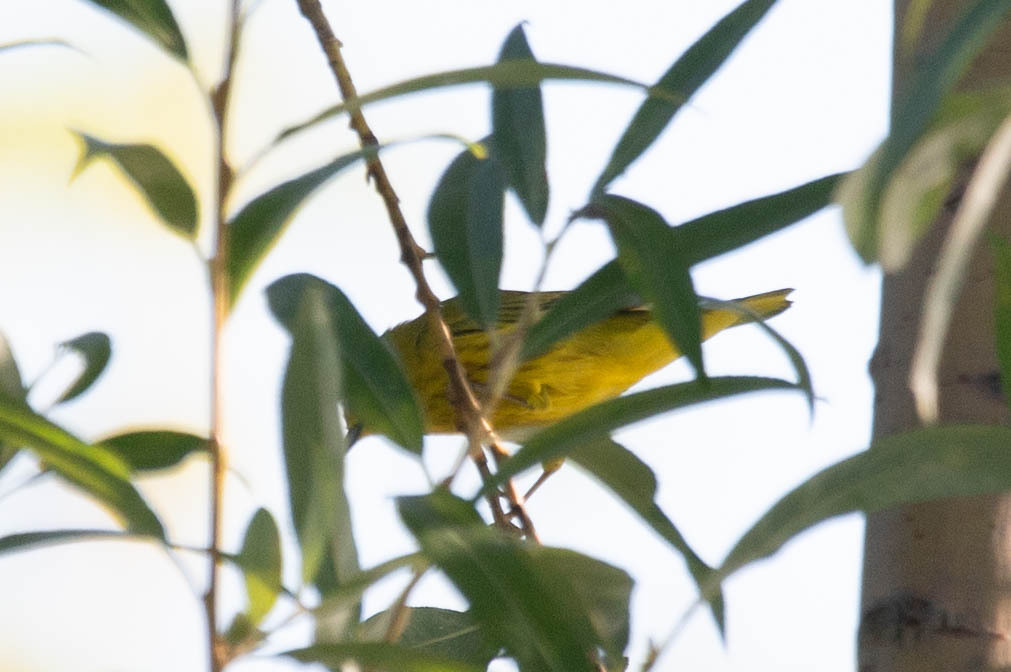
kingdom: Animalia
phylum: Chordata
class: Aves
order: Passeriformes
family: Parulidae
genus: Setophaga
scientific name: Setophaga petechia
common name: Yellow warbler
